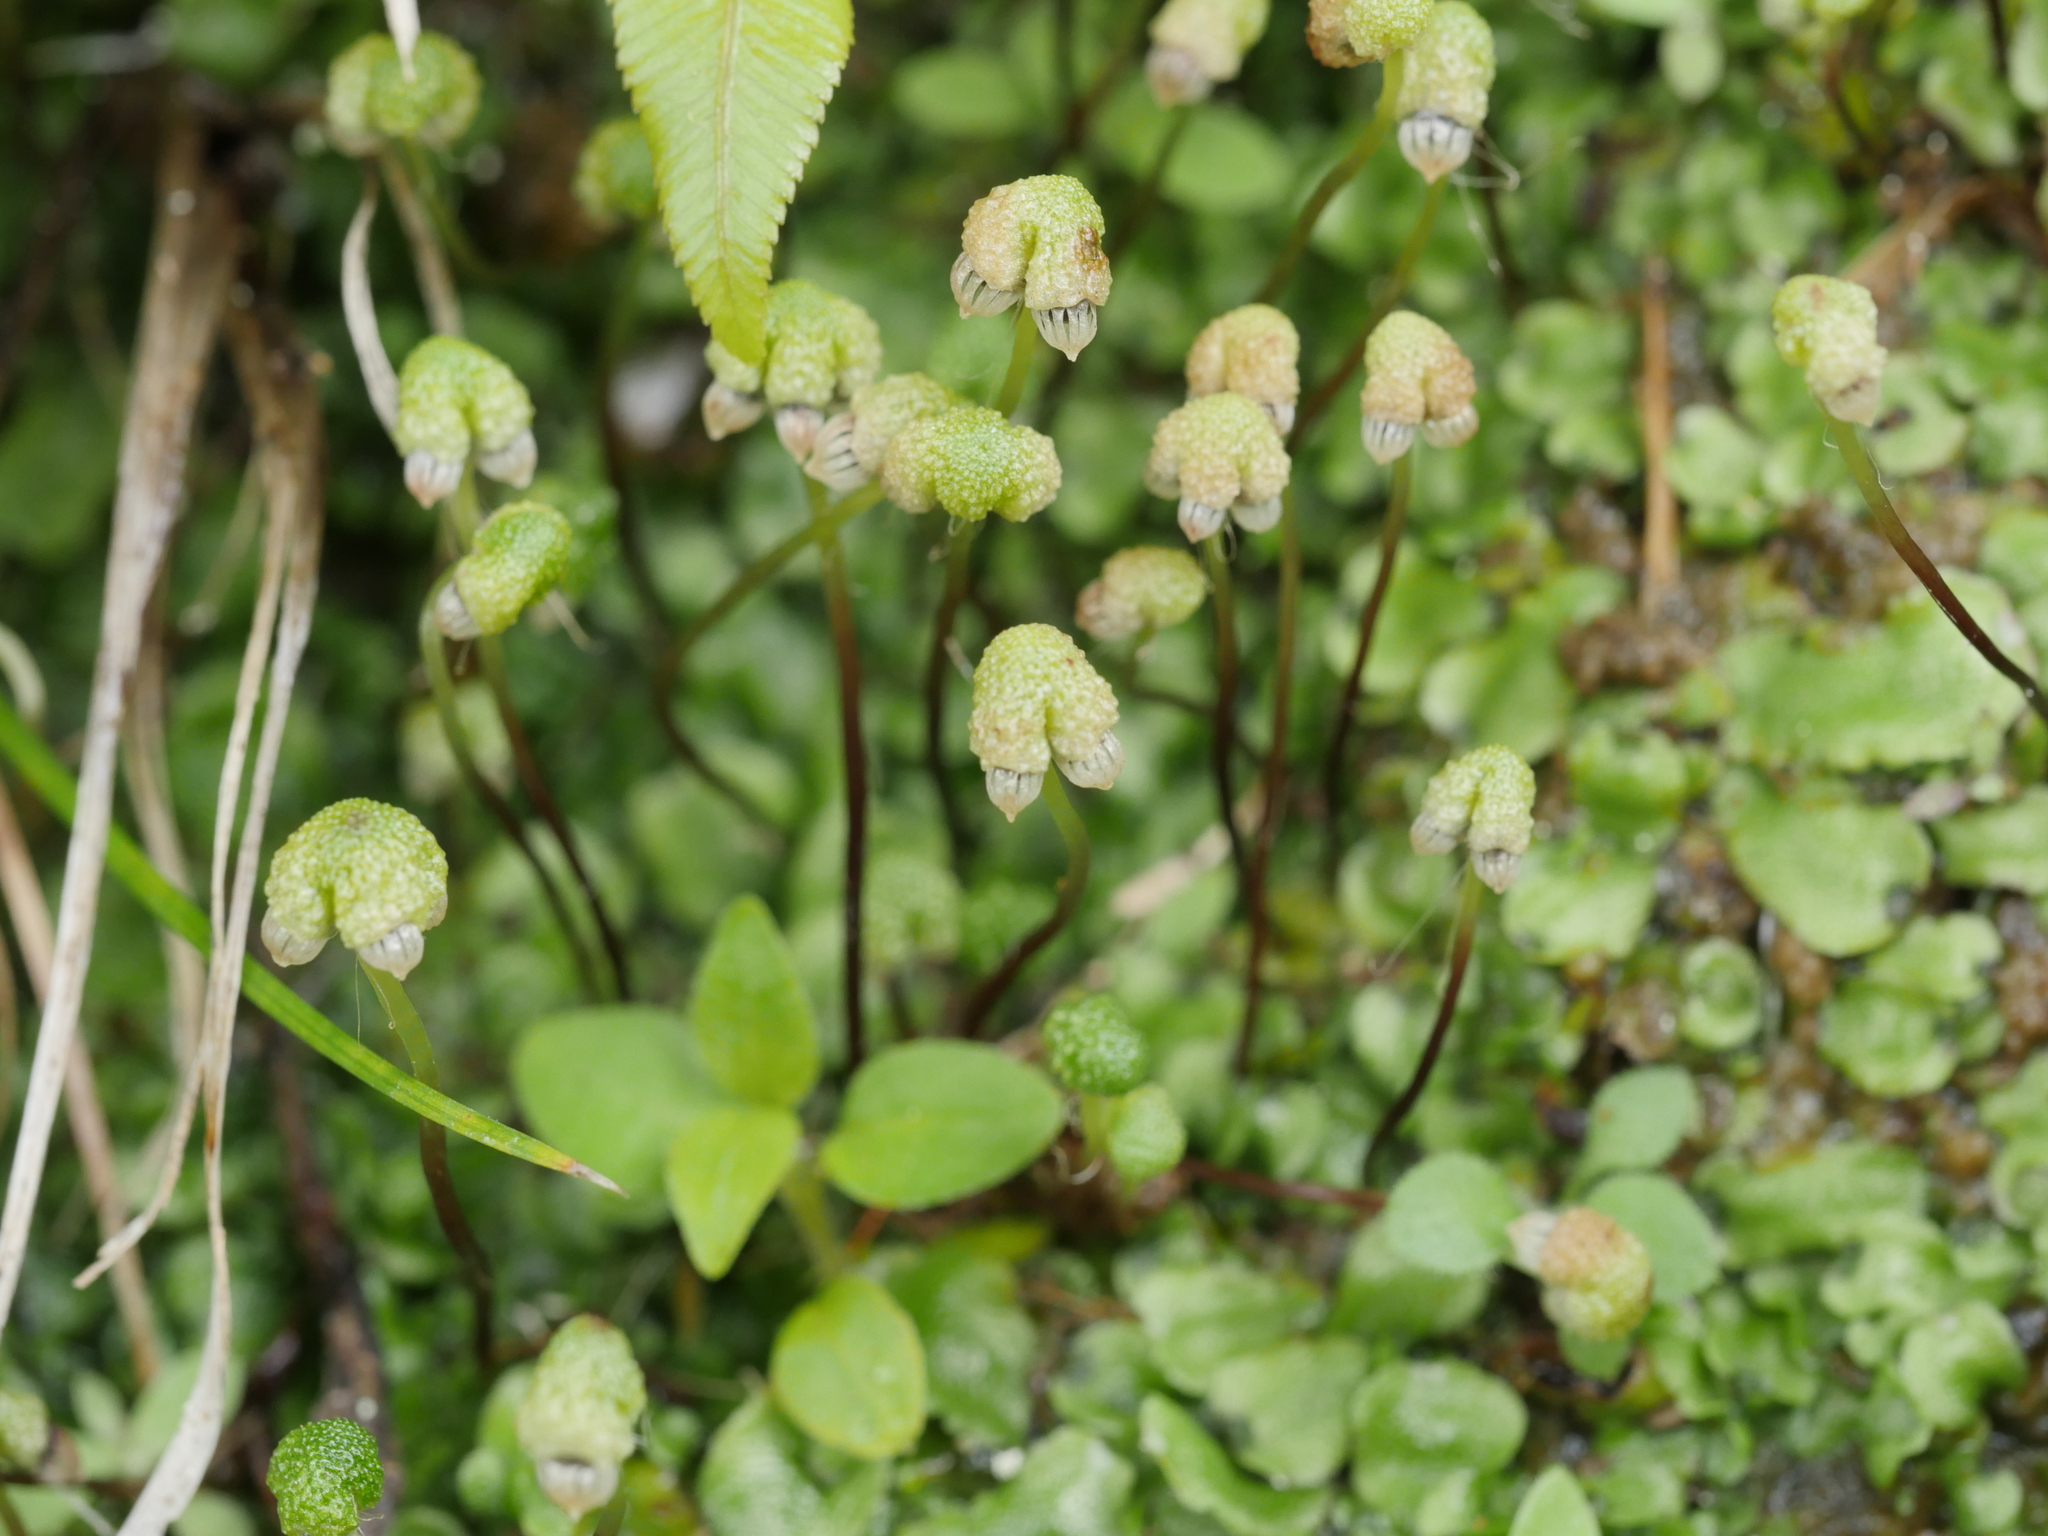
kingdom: Plantae
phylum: Marchantiophyta
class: Marchantiopsida
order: Marchantiales
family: Marchantiaceae
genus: Marchantia
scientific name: Marchantia berteroana
